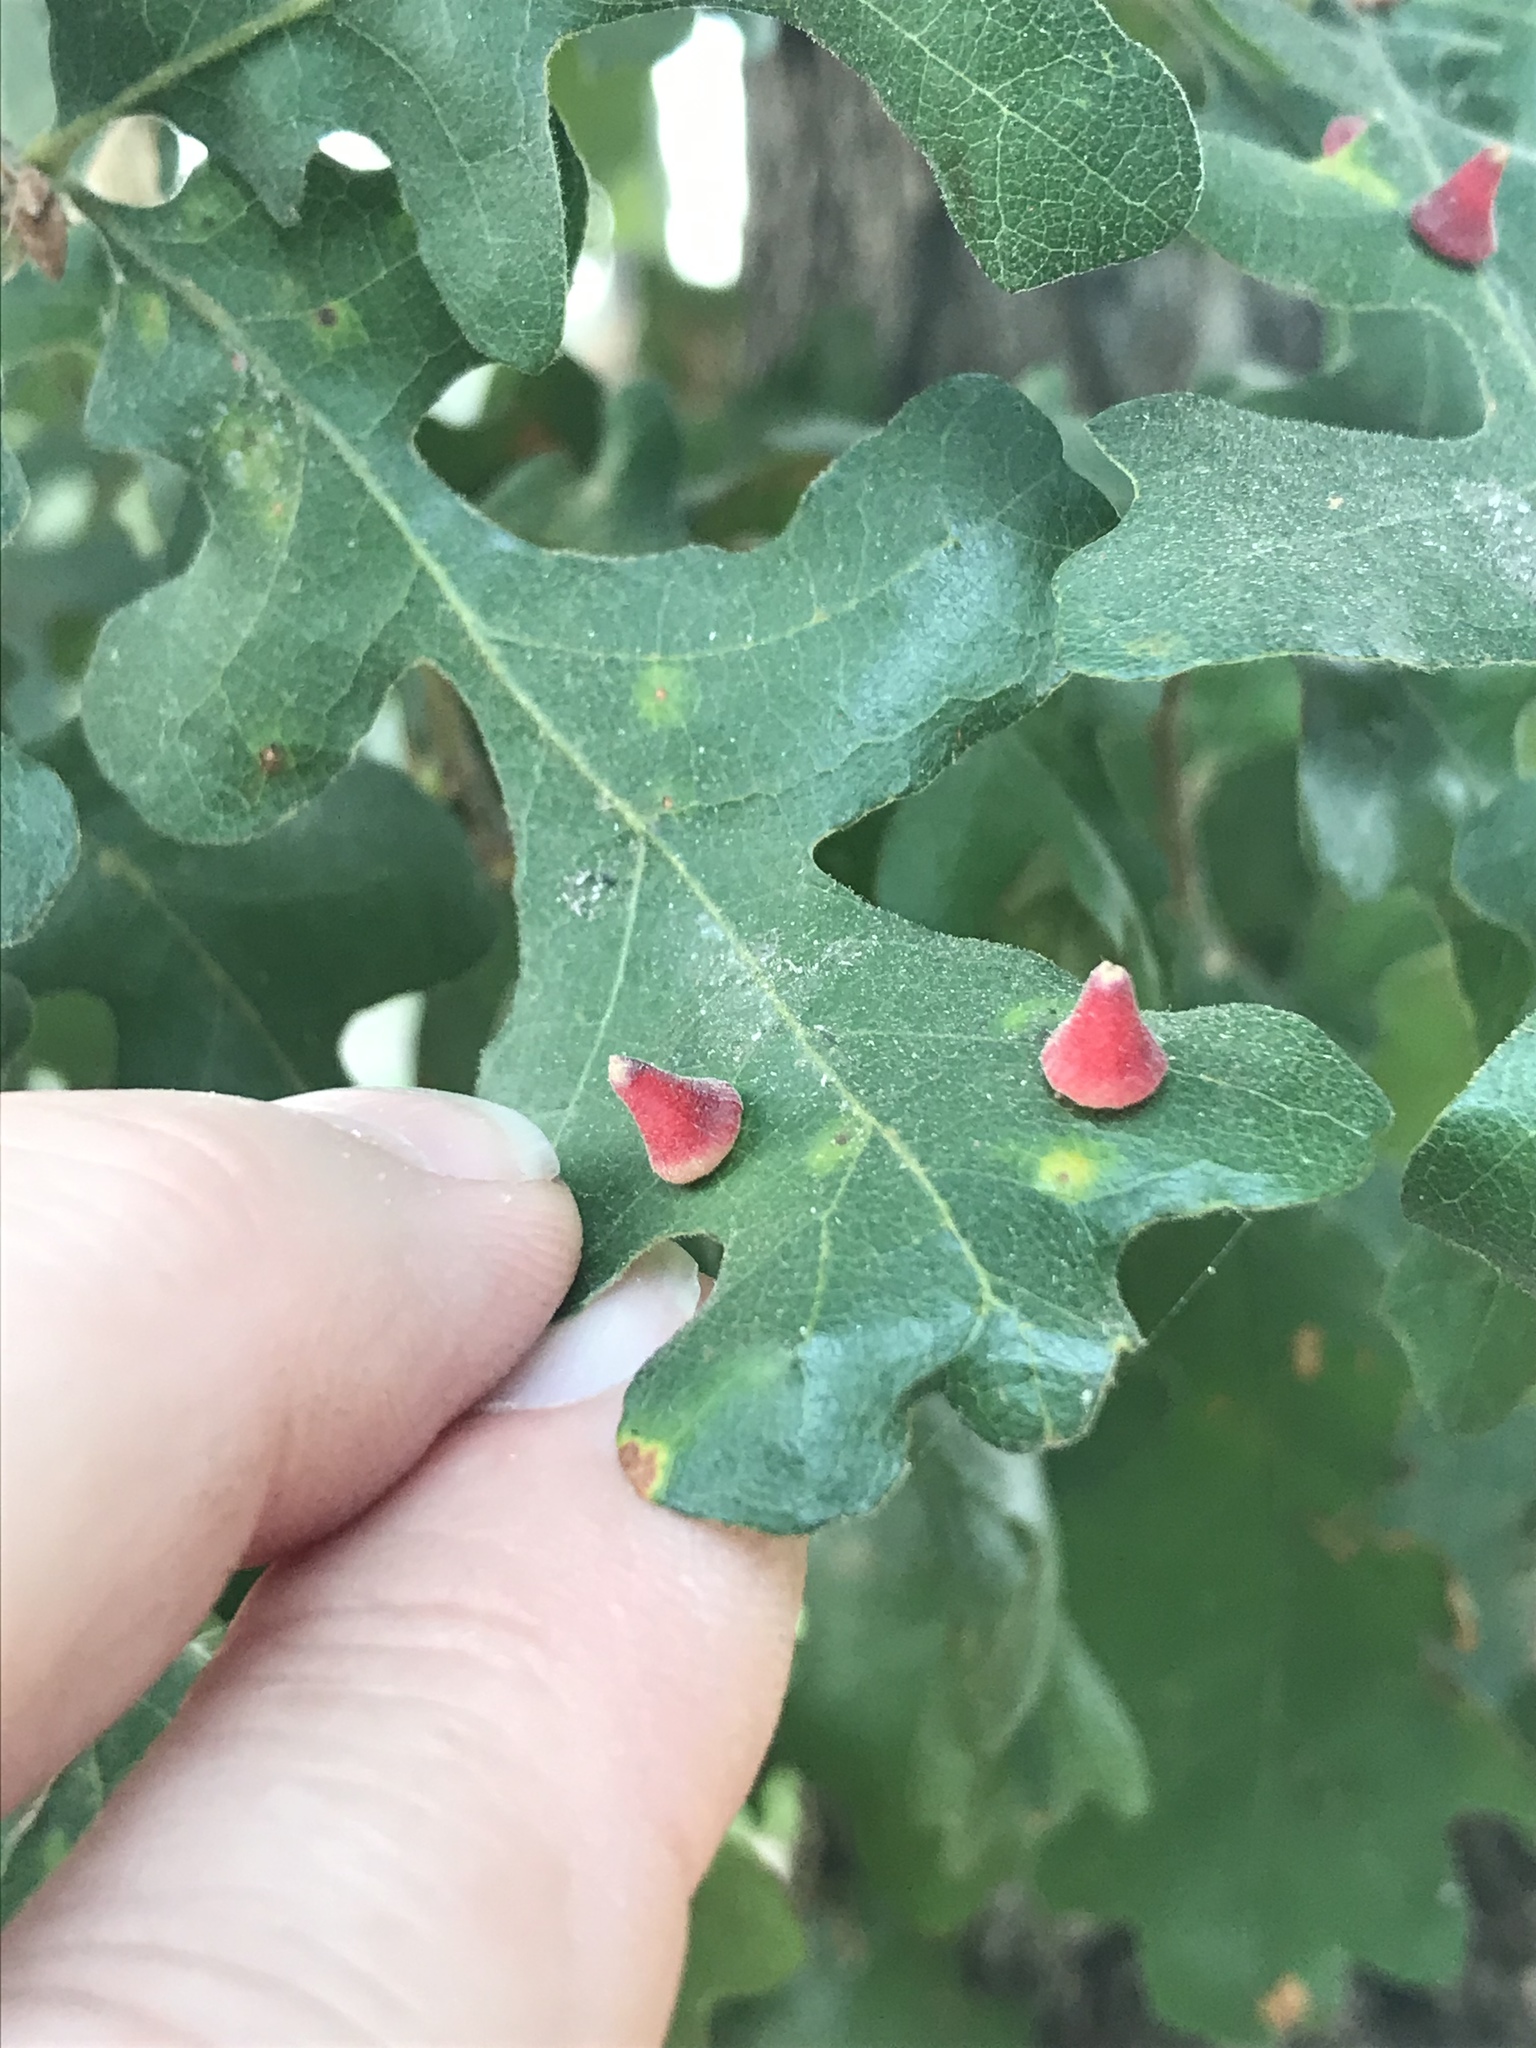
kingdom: Animalia
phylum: Arthropoda
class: Insecta
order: Hymenoptera
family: Cynipidae
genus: Andricus
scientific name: Andricus
